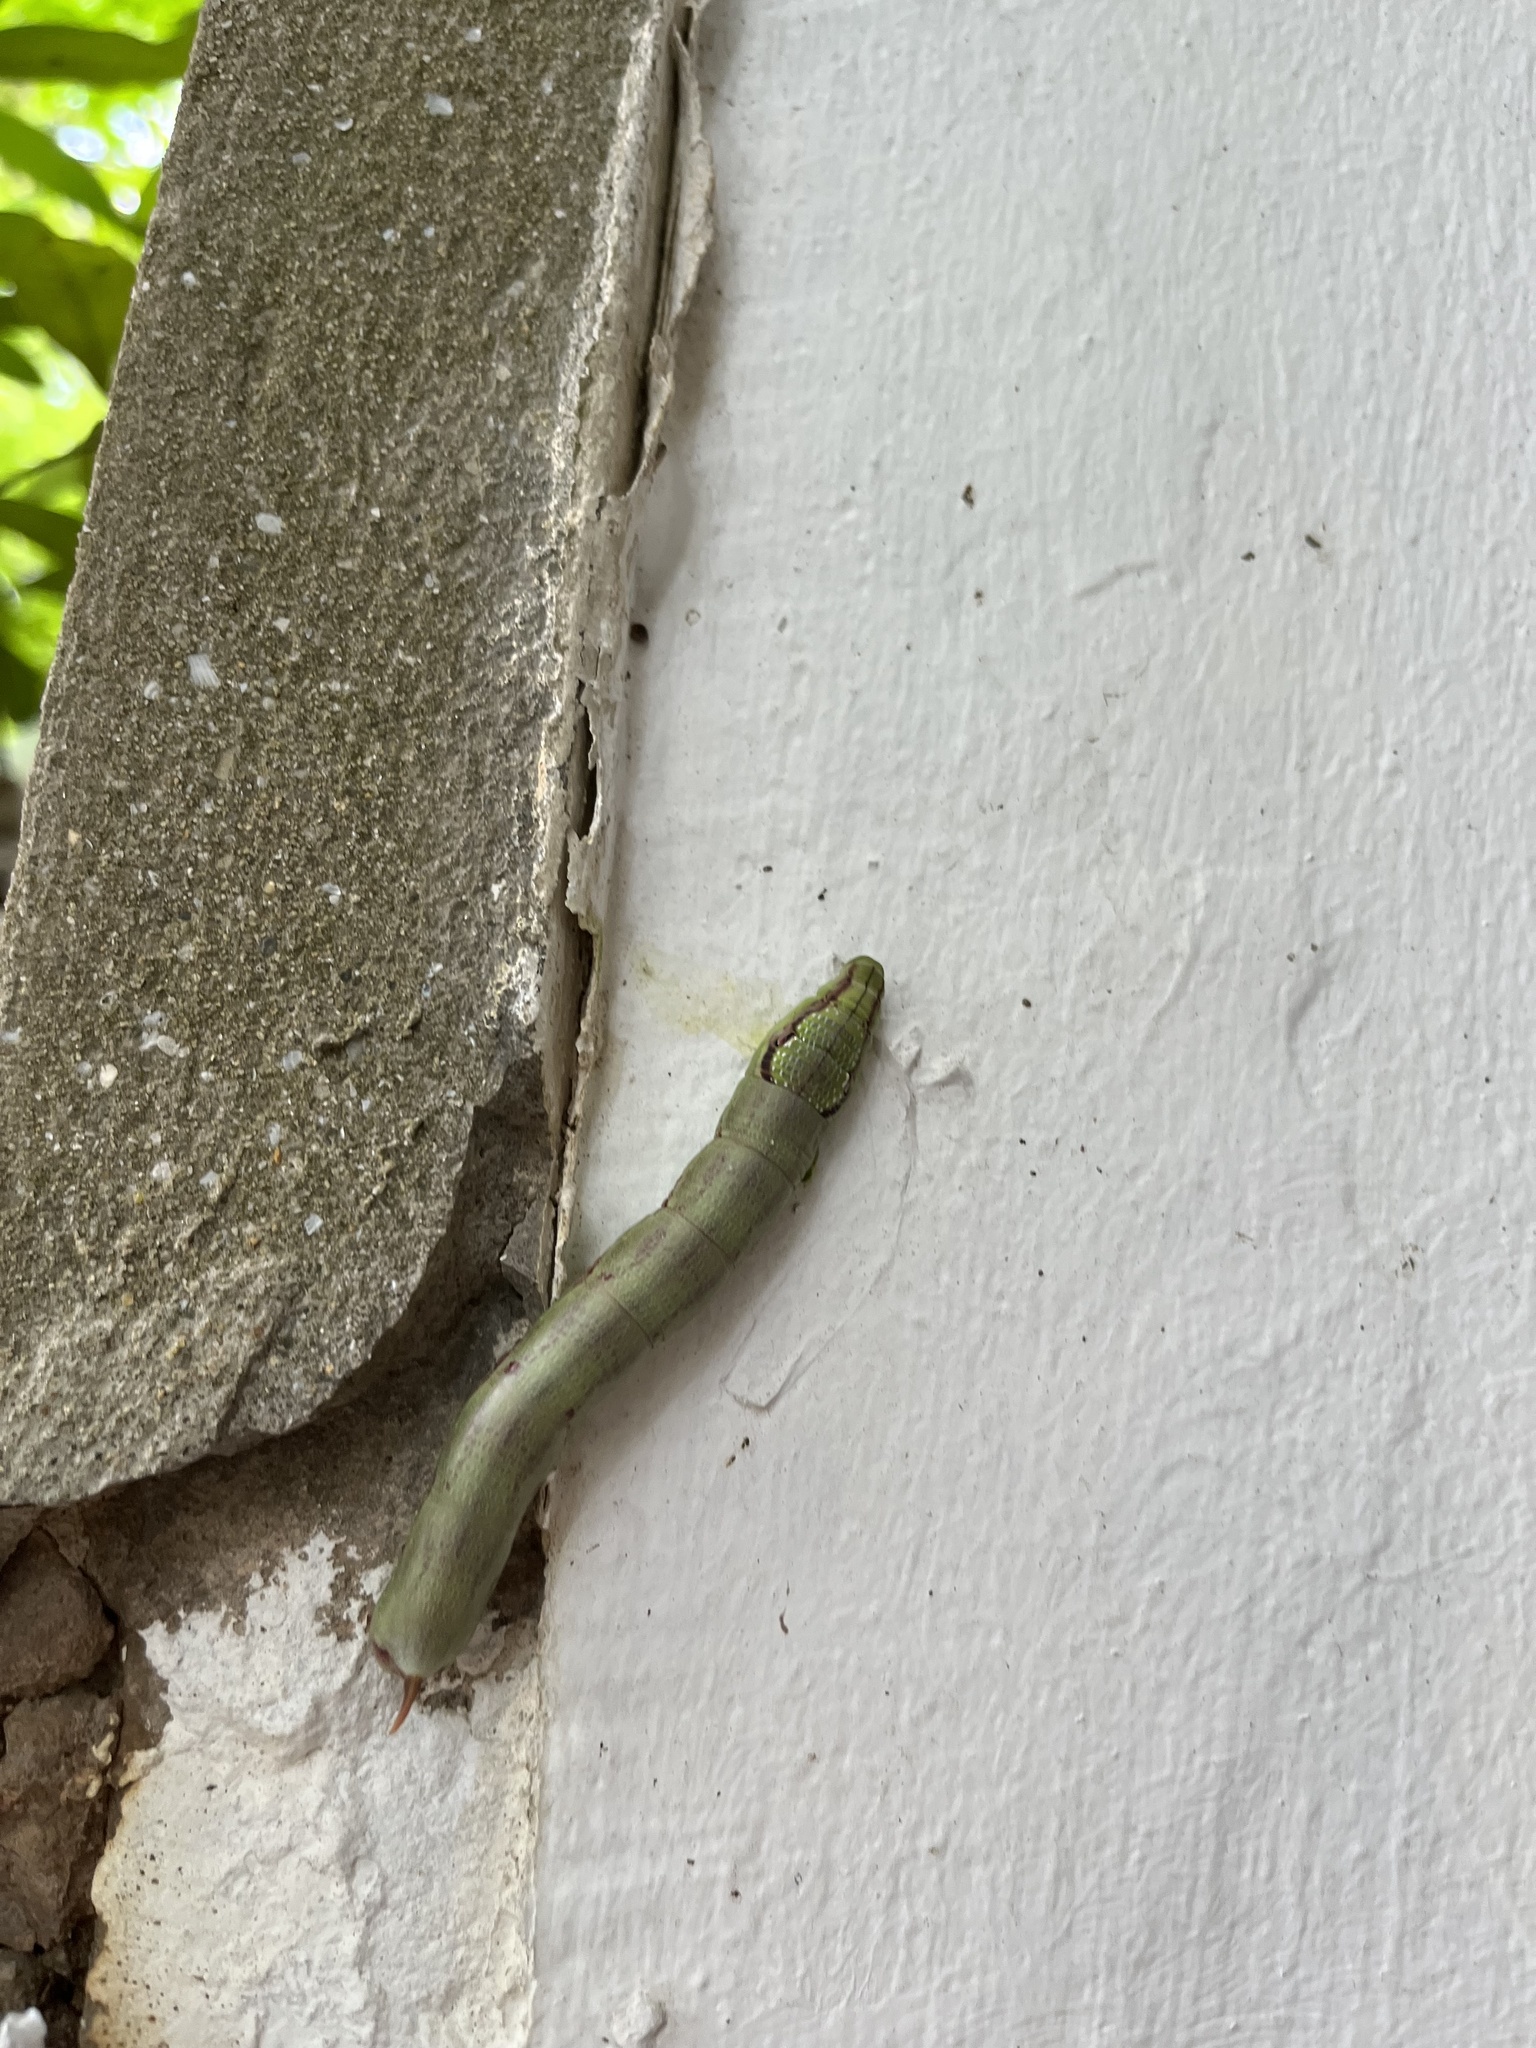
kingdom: Animalia
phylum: Arthropoda
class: Insecta
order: Lepidoptera
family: Sphingidae
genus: Eupanacra
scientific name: Eupanacra mydon
